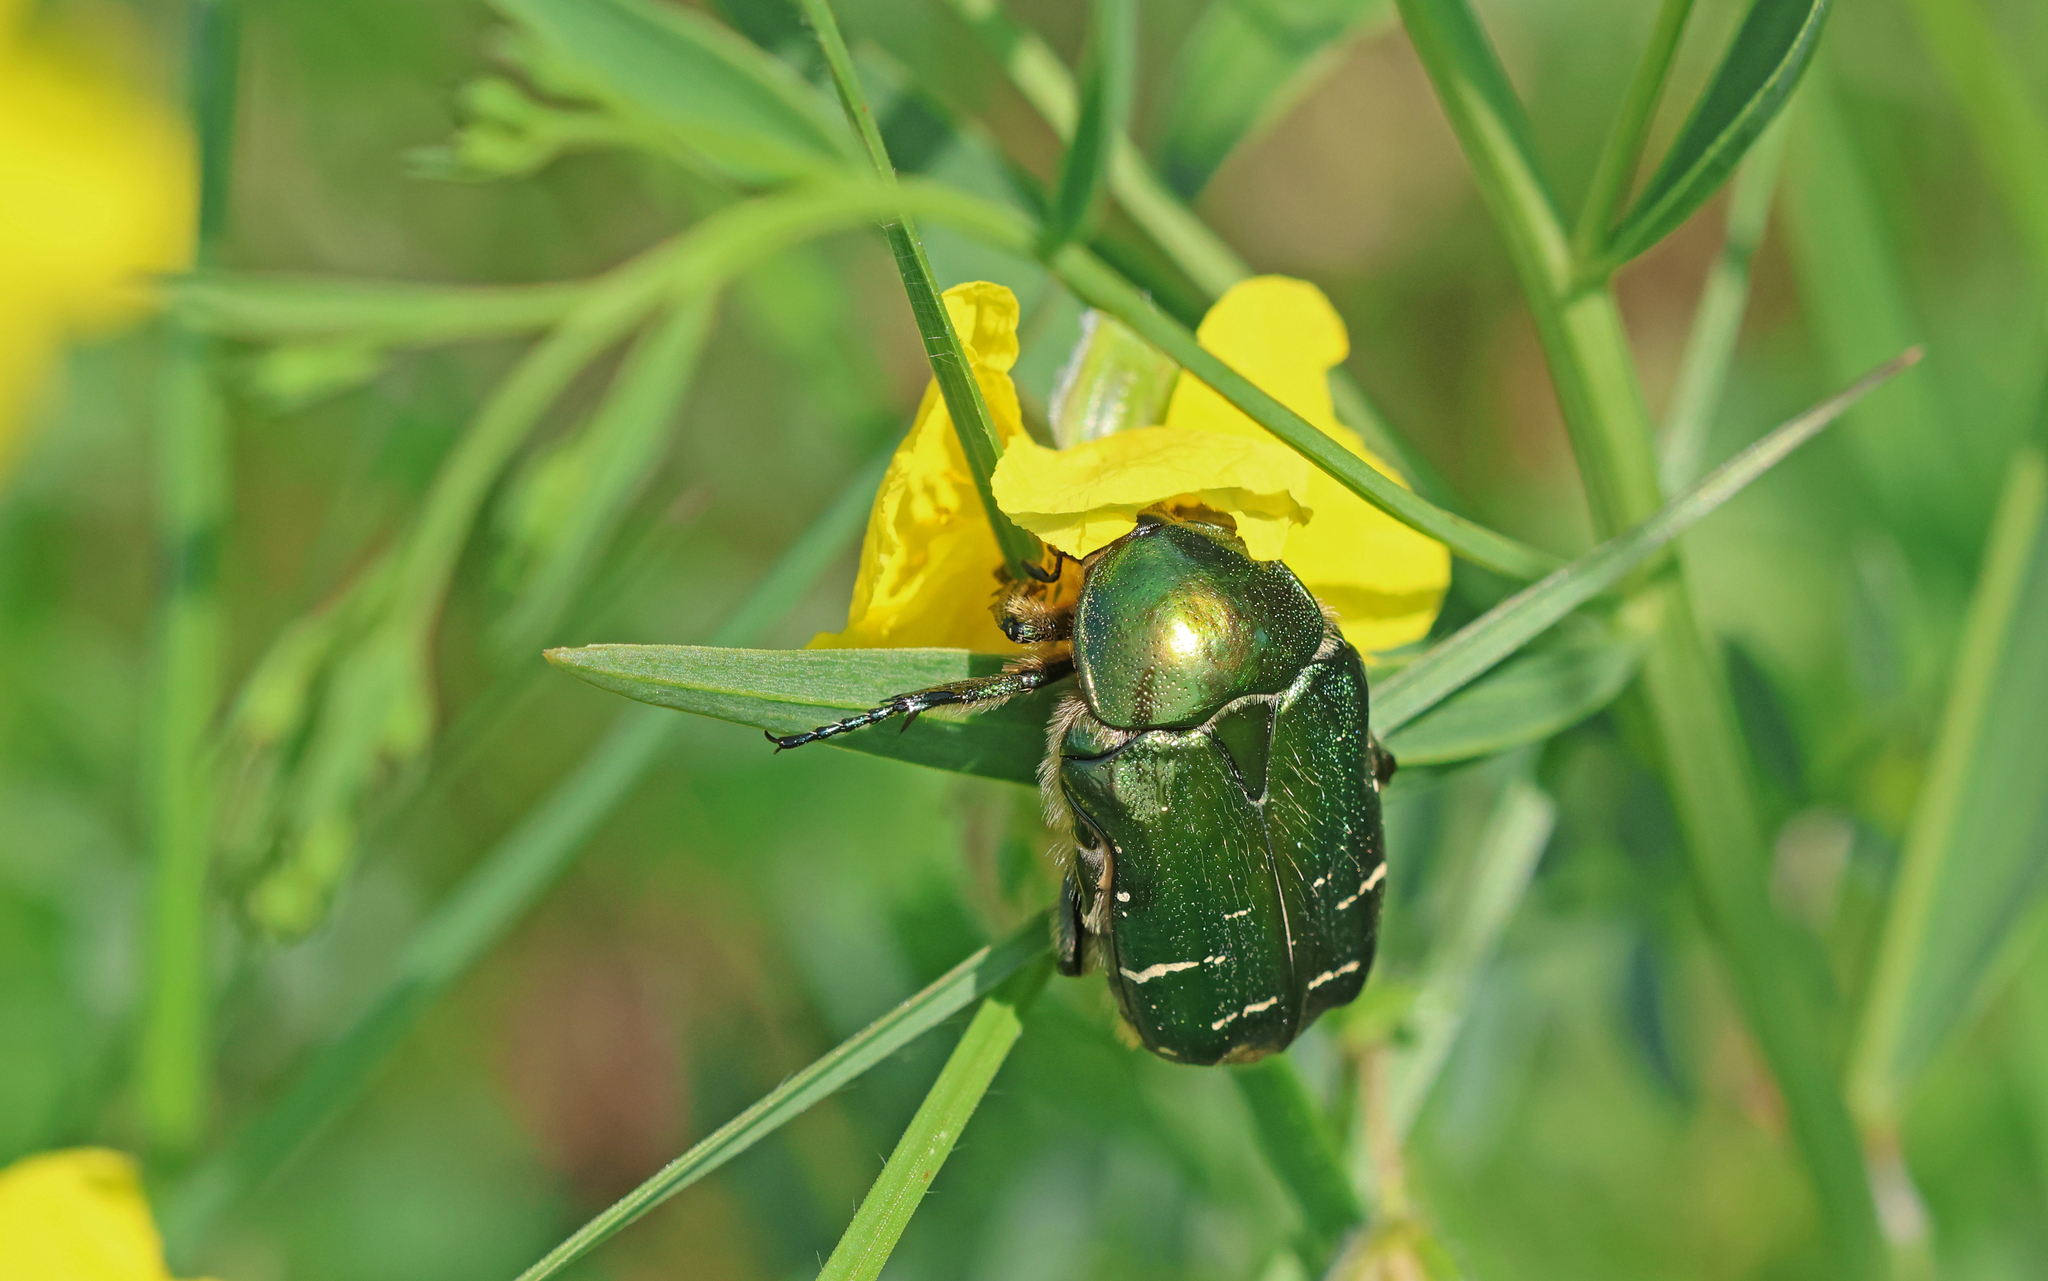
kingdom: Animalia
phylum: Arthropoda
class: Insecta
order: Coleoptera
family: Scarabaeidae
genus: Cetonia
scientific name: Cetonia aurata
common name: Rose chafer
